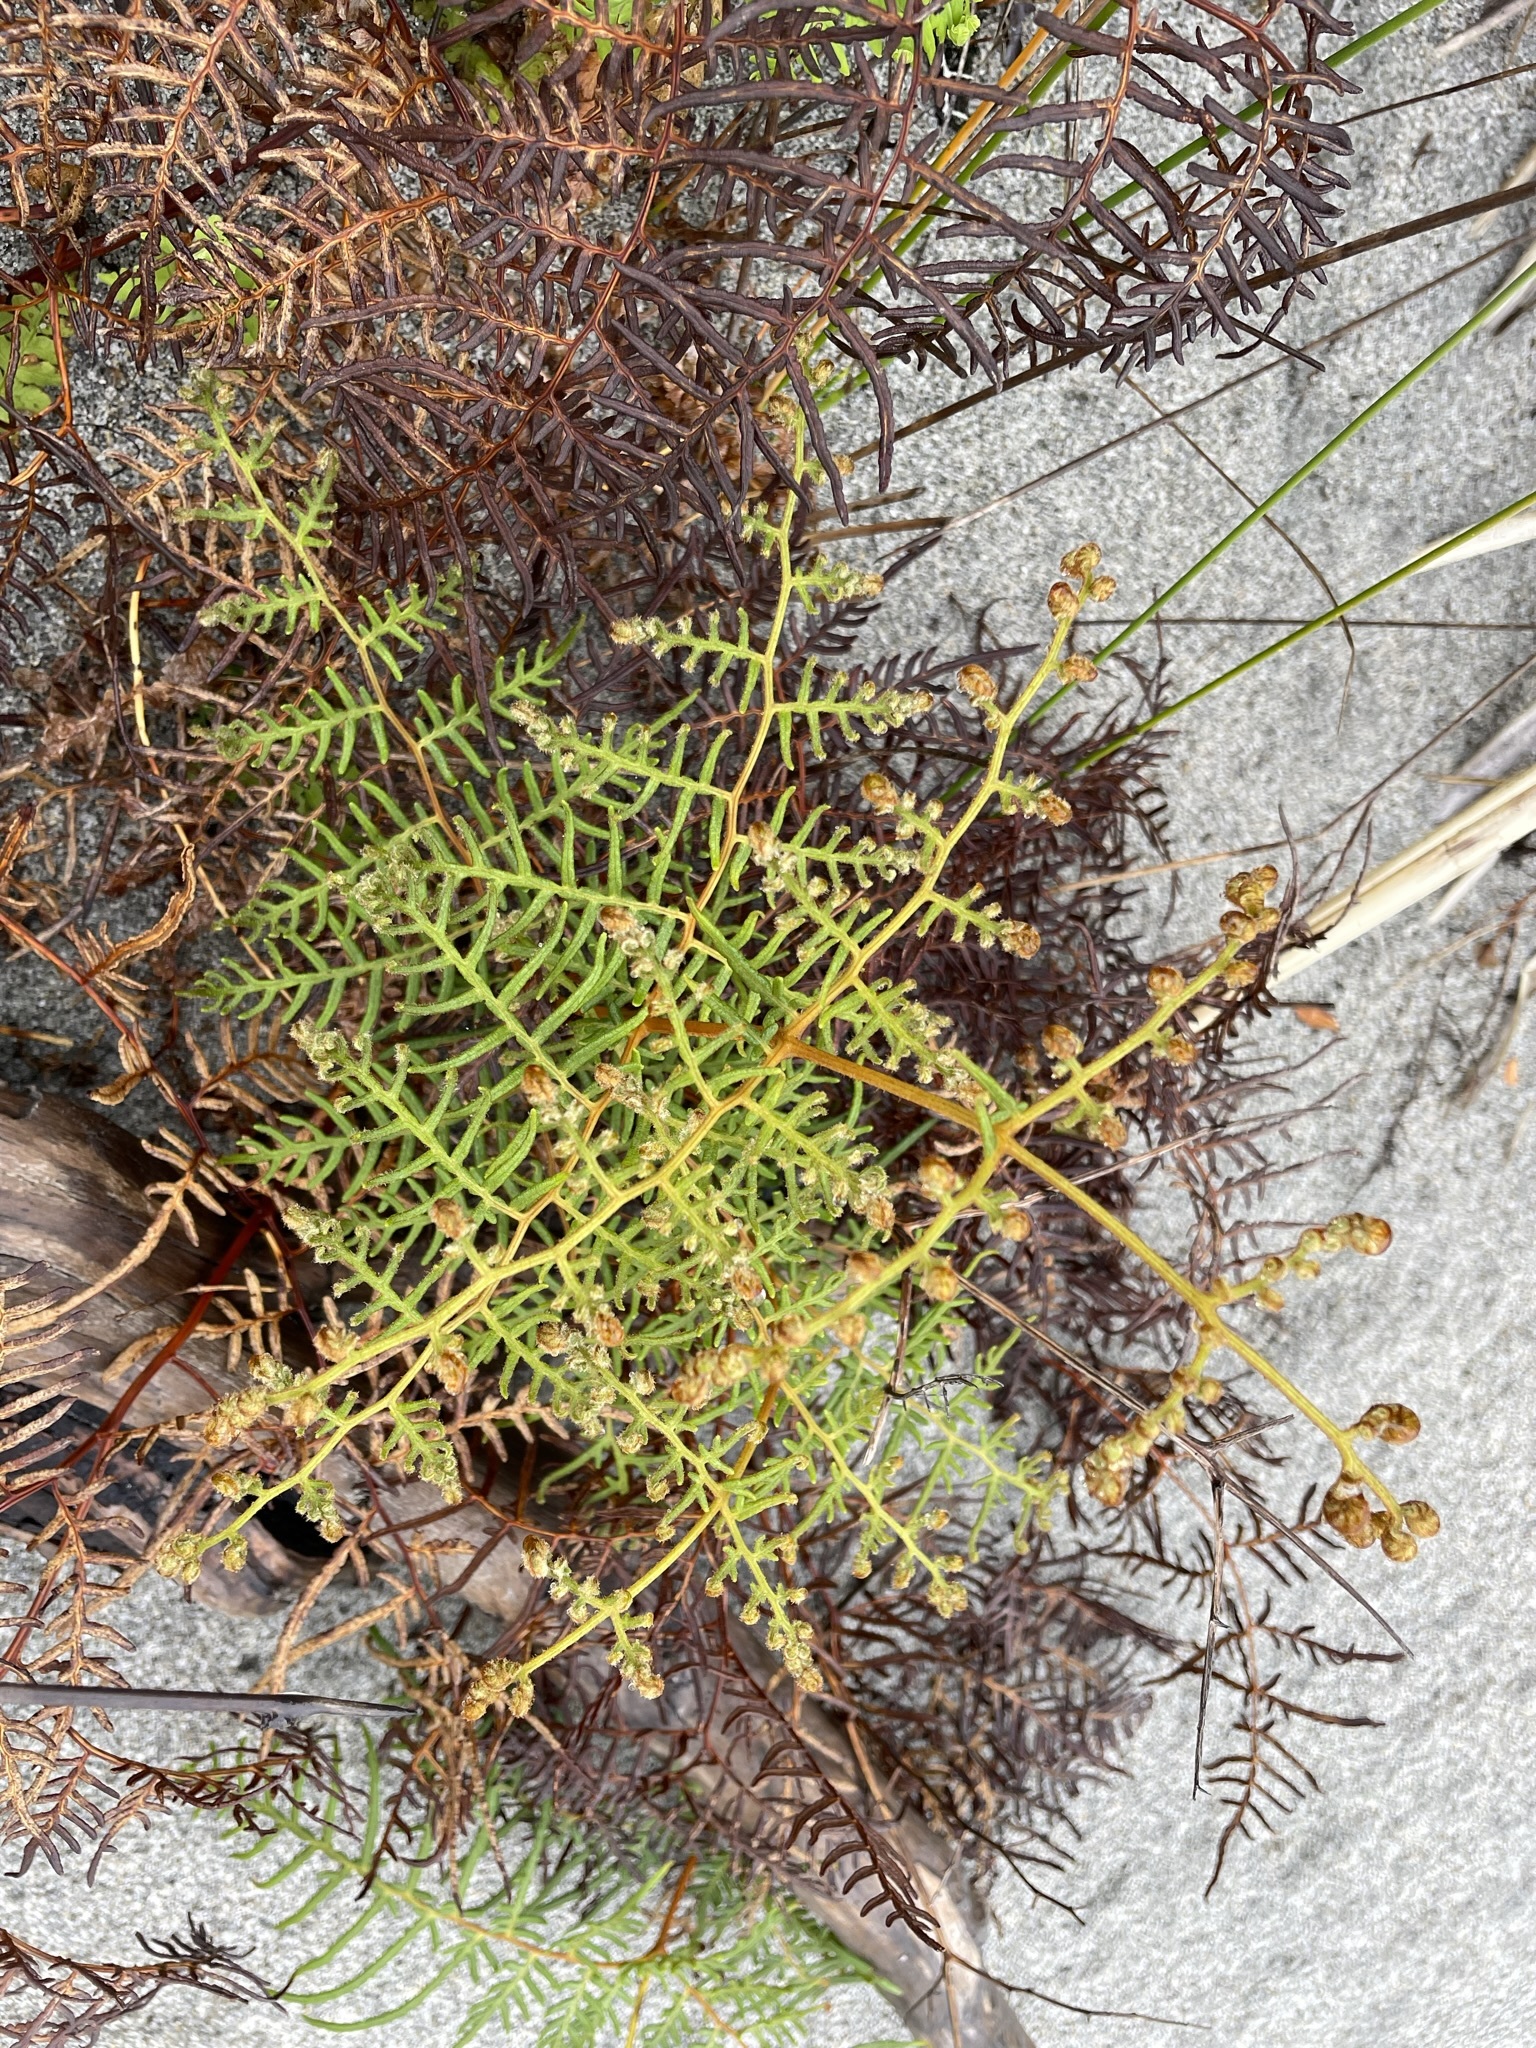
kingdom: Plantae
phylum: Tracheophyta
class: Polypodiopsida
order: Polypodiales
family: Dennstaedtiaceae
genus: Pteridium
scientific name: Pteridium esculentum
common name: Bracken fern
